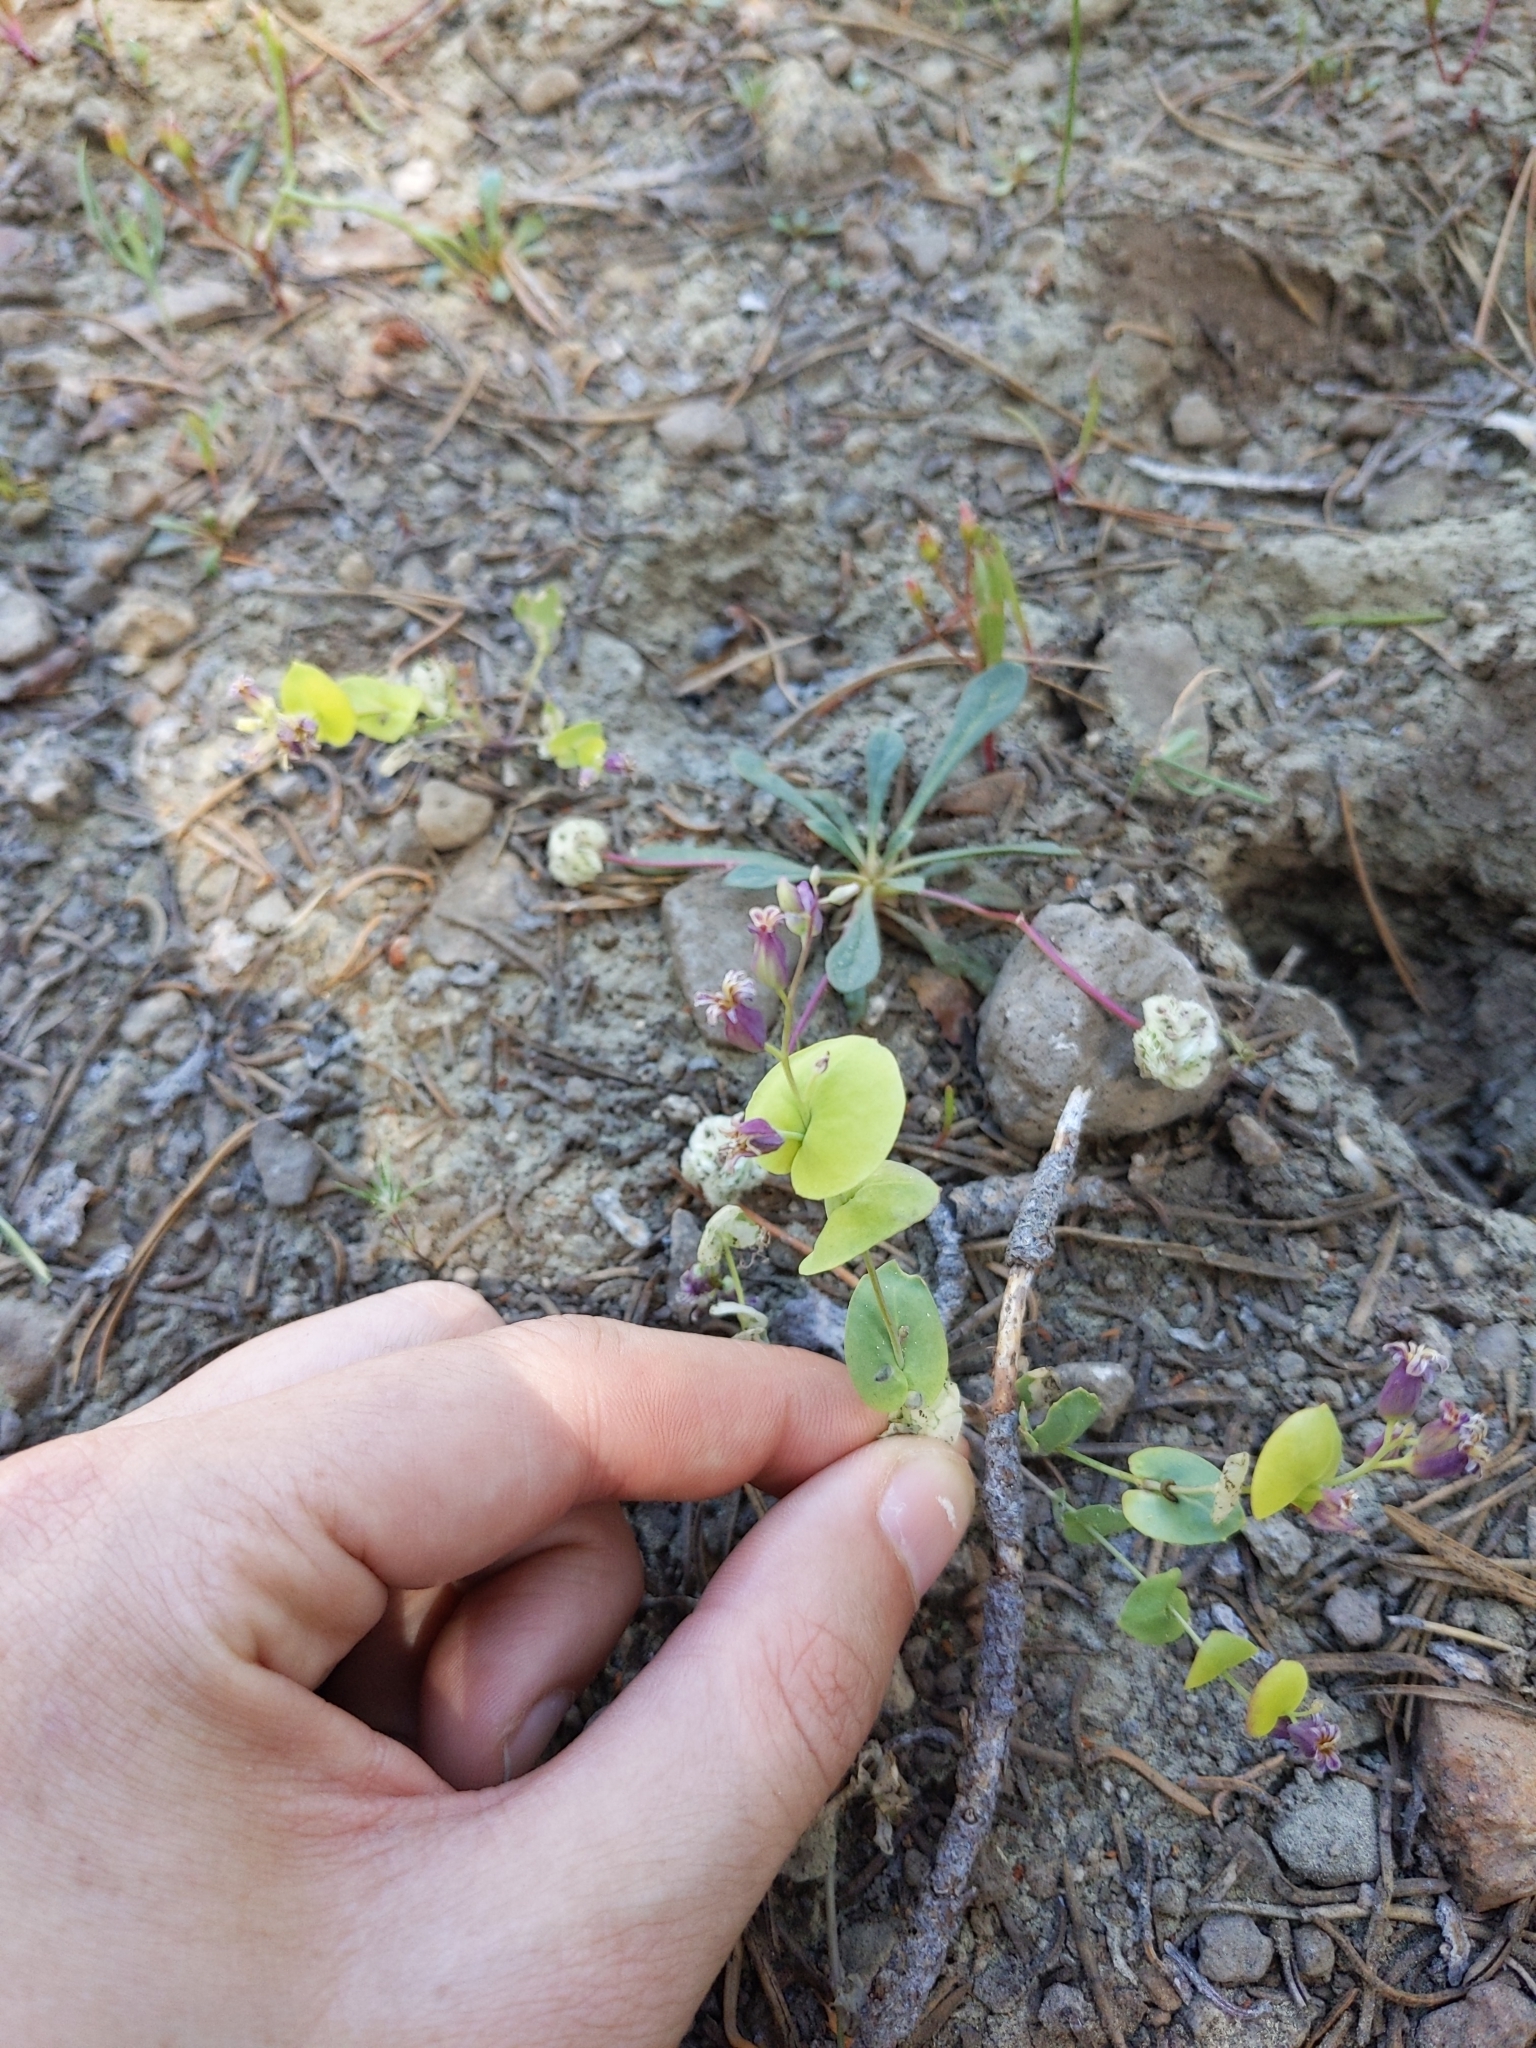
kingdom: Plantae
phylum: Tracheophyta
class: Magnoliopsida
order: Brassicales
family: Brassicaceae
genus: Streptanthus
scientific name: Streptanthus tortuosus
